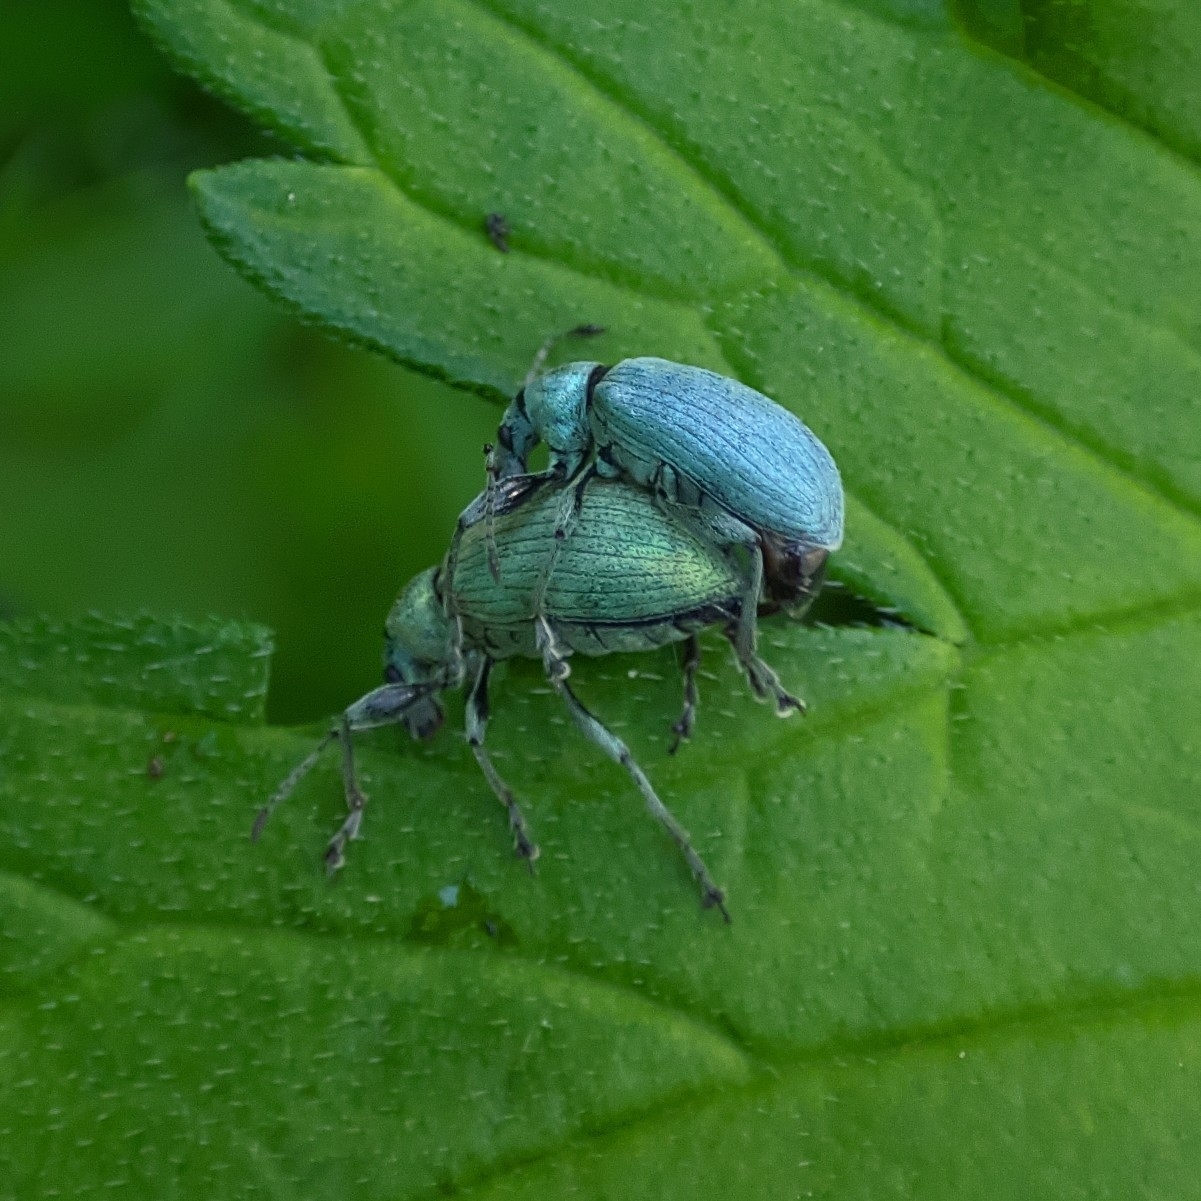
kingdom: Animalia
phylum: Arthropoda
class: Insecta
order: Coleoptera
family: Curculionidae
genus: Phyllobius
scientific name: Phyllobius pomaceus
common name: Green nettle weevil
